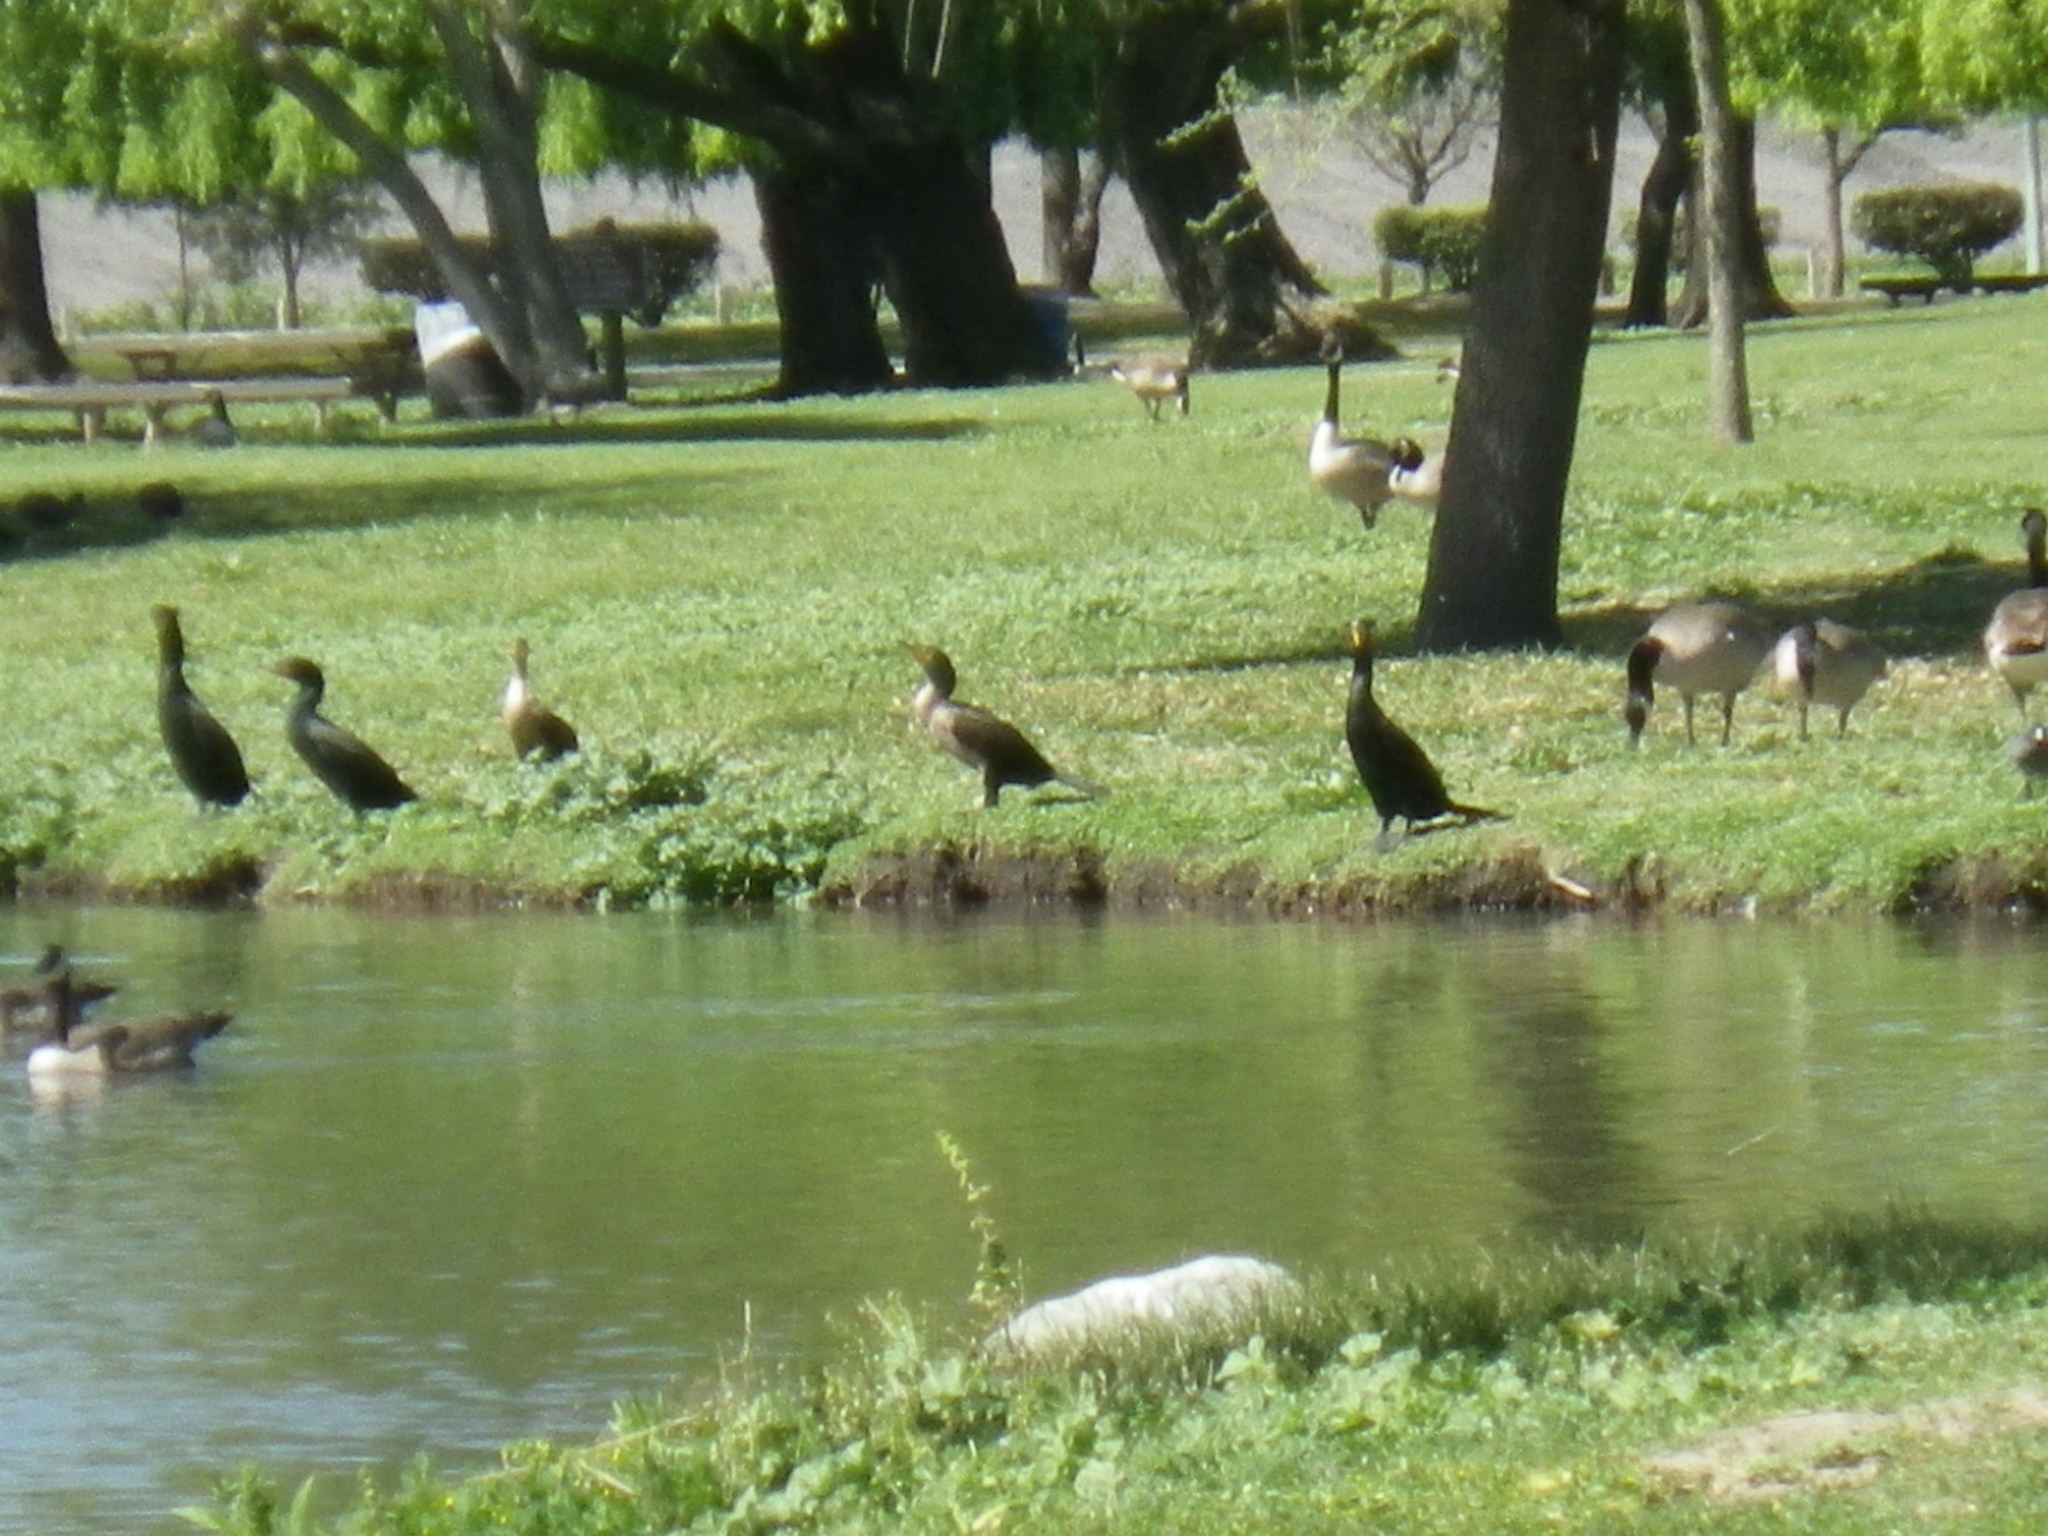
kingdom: Animalia
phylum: Chordata
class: Aves
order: Suliformes
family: Phalacrocoracidae
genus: Phalacrocorax
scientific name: Phalacrocorax auritus
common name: Double-crested cormorant
